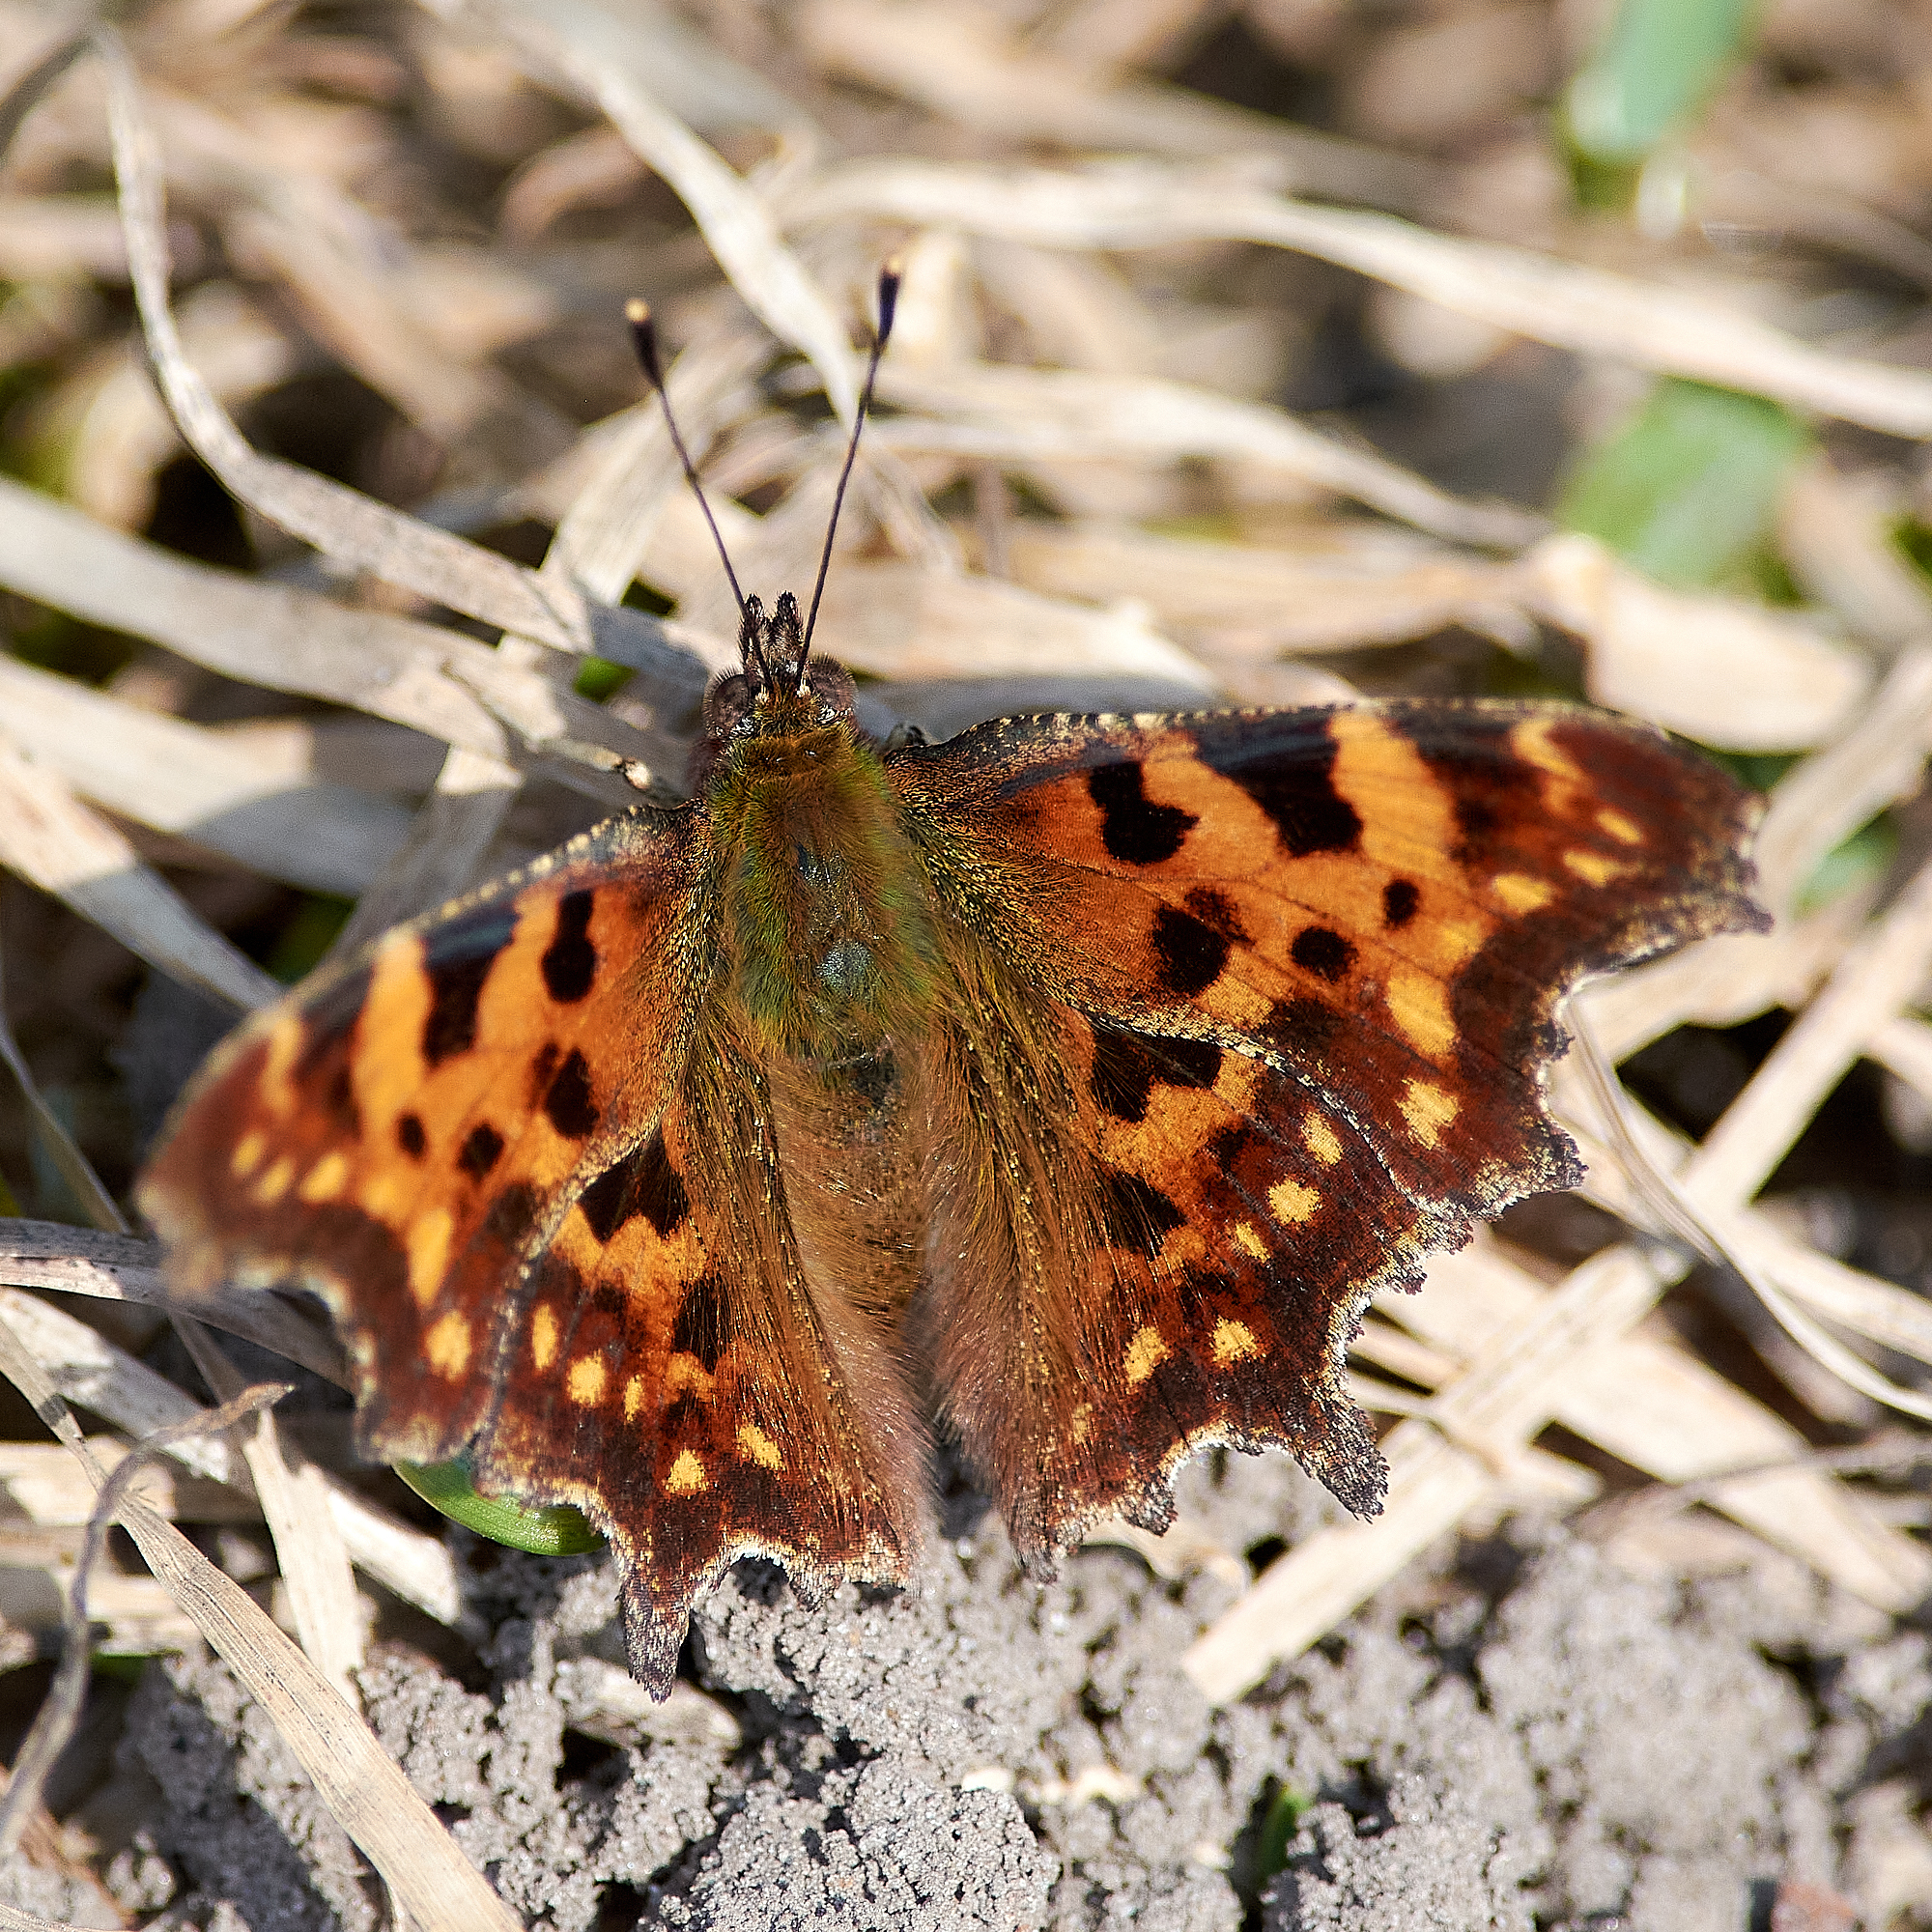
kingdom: Animalia
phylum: Arthropoda
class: Insecta
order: Lepidoptera
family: Nymphalidae
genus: Polygonia
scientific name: Polygonia c-album
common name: Comma
